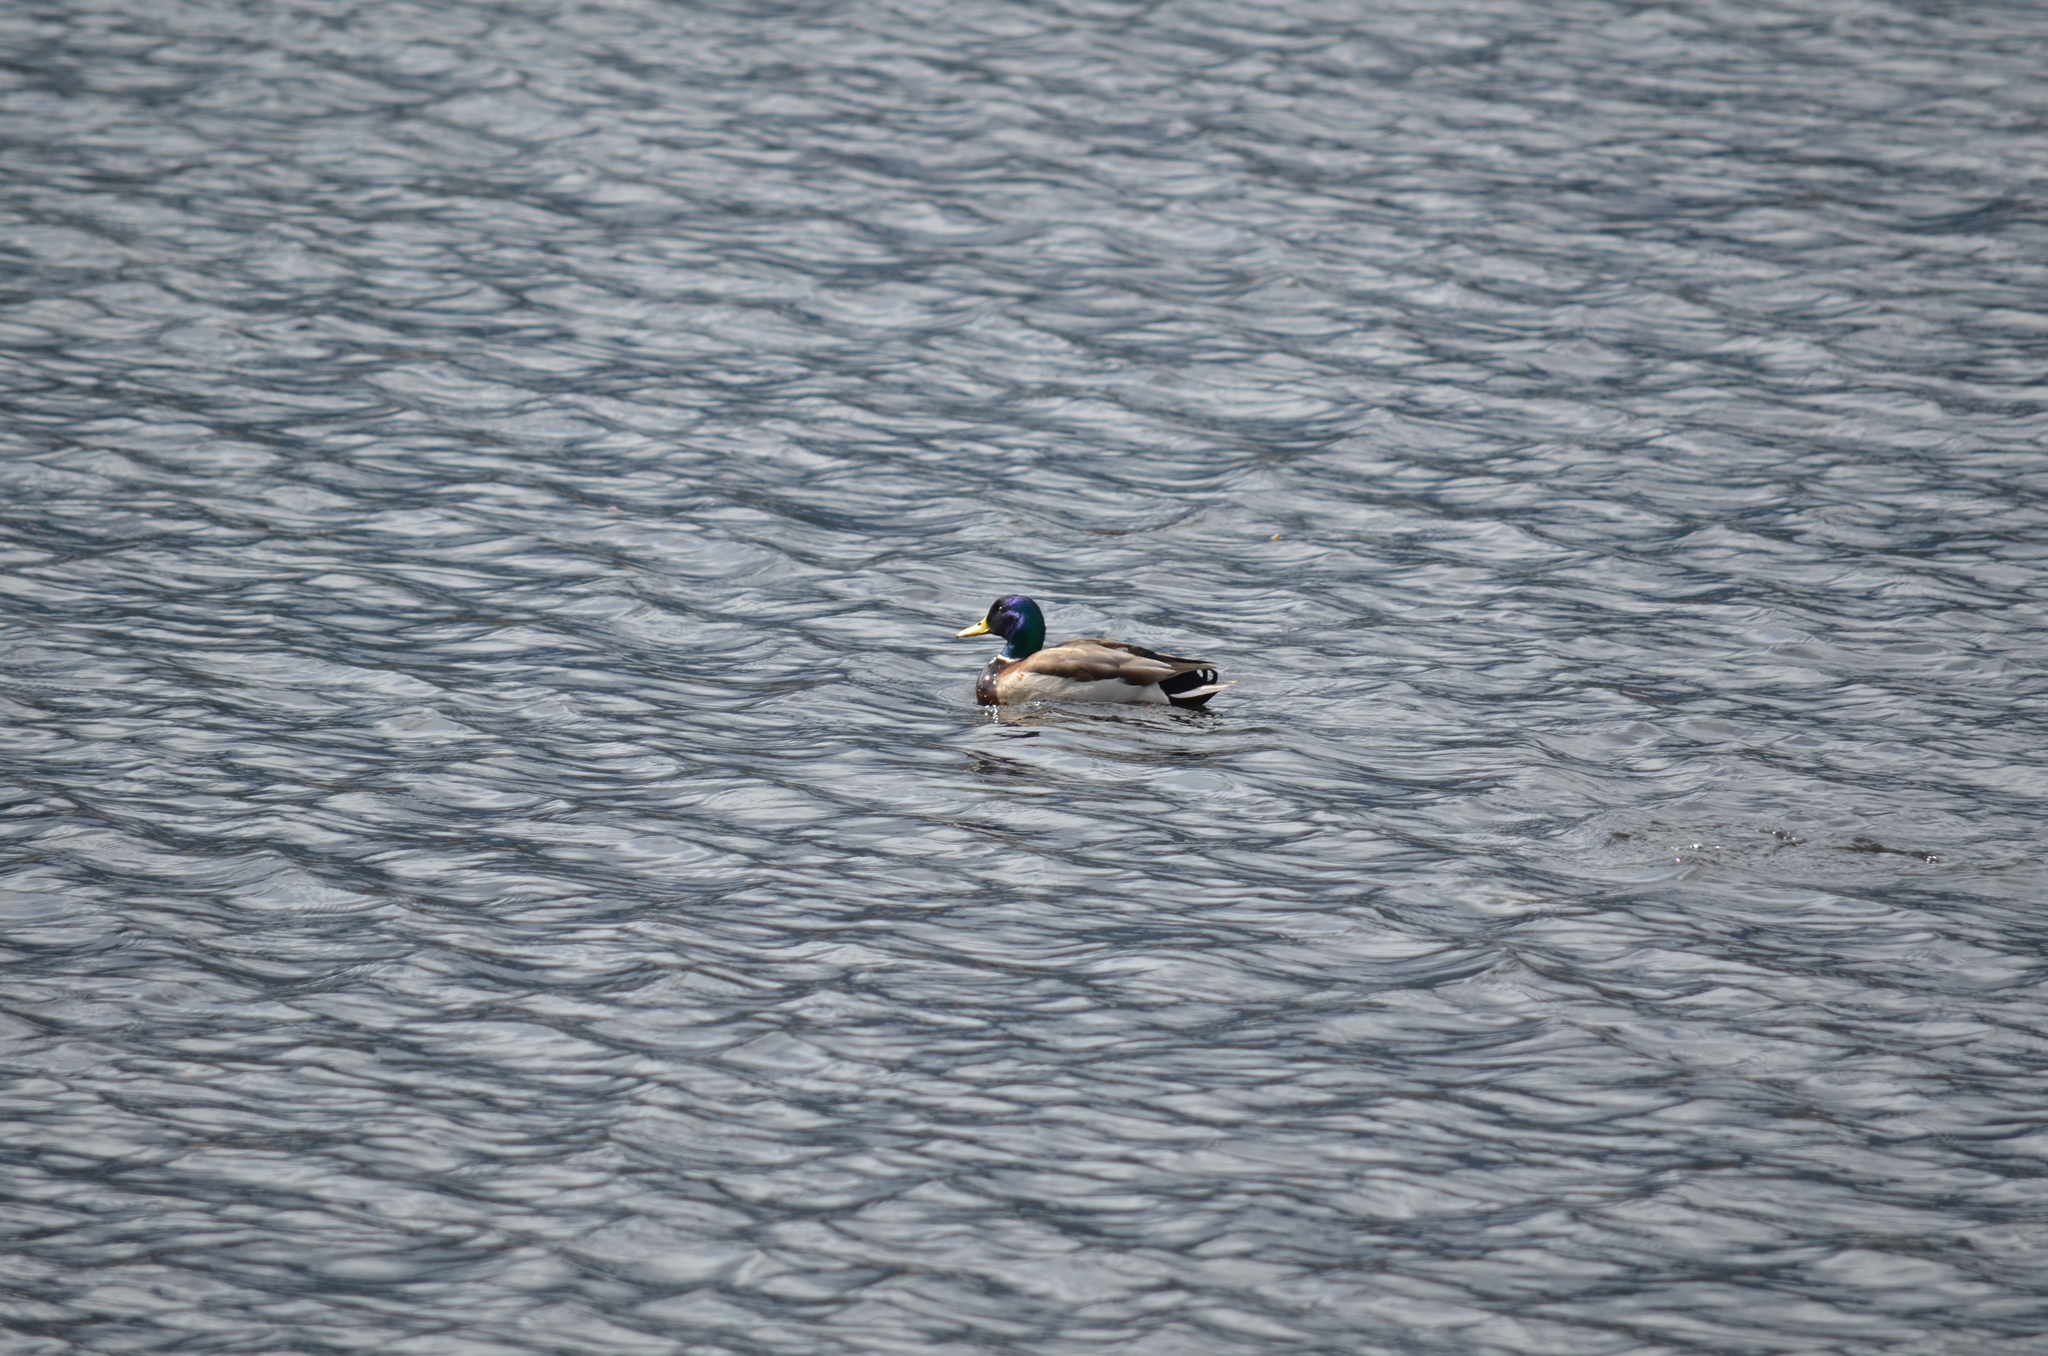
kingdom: Animalia
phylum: Chordata
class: Aves
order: Anseriformes
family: Anatidae
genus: Anas
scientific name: Anas platyrhynchos
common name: Mallard
